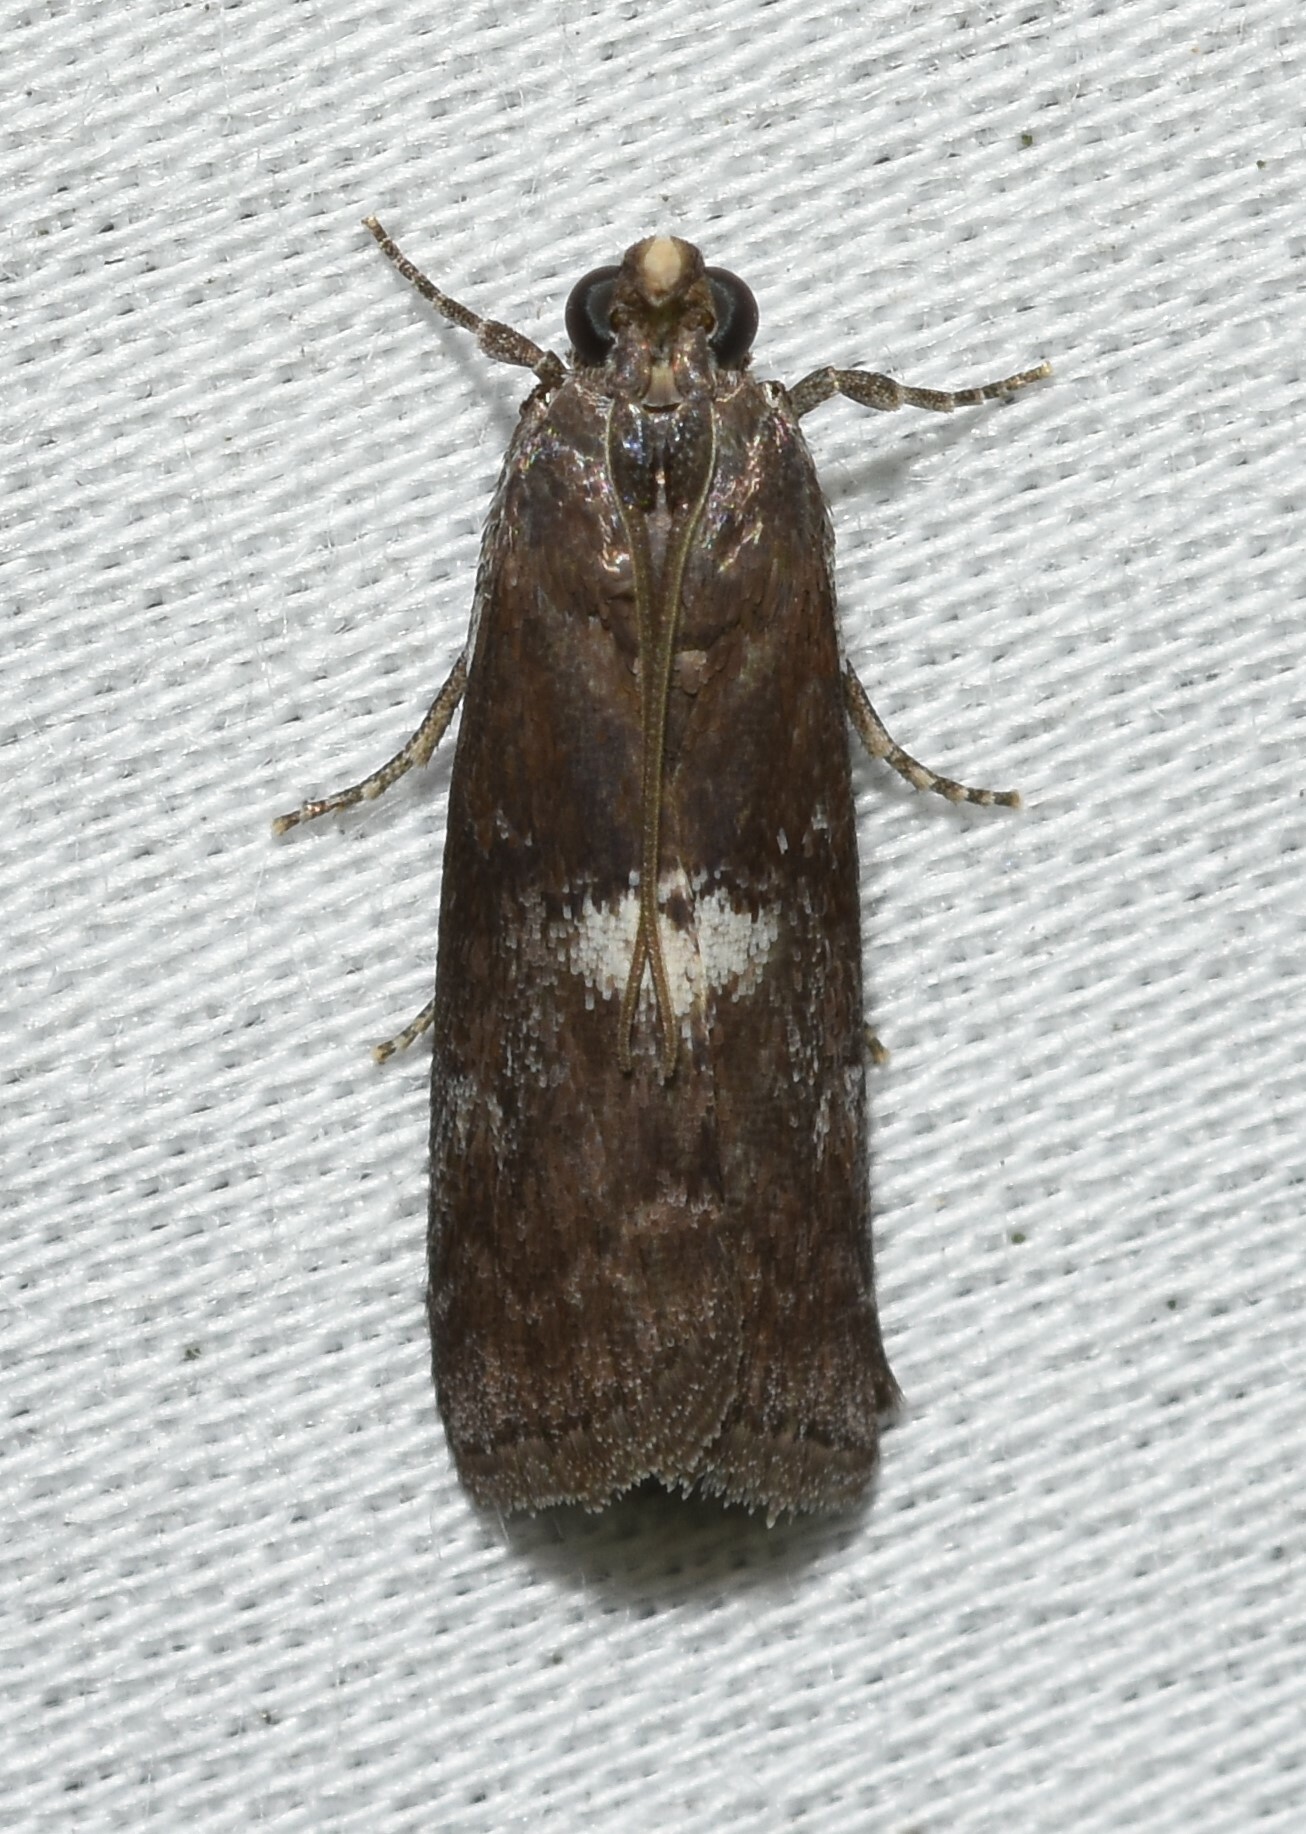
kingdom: Animalia
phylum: Arthropoda
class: Insecta
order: Lepidoptera
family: Pyralidae
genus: Salebriaria
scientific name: Salebriaria engeli
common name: Engel's salebriaria moth
